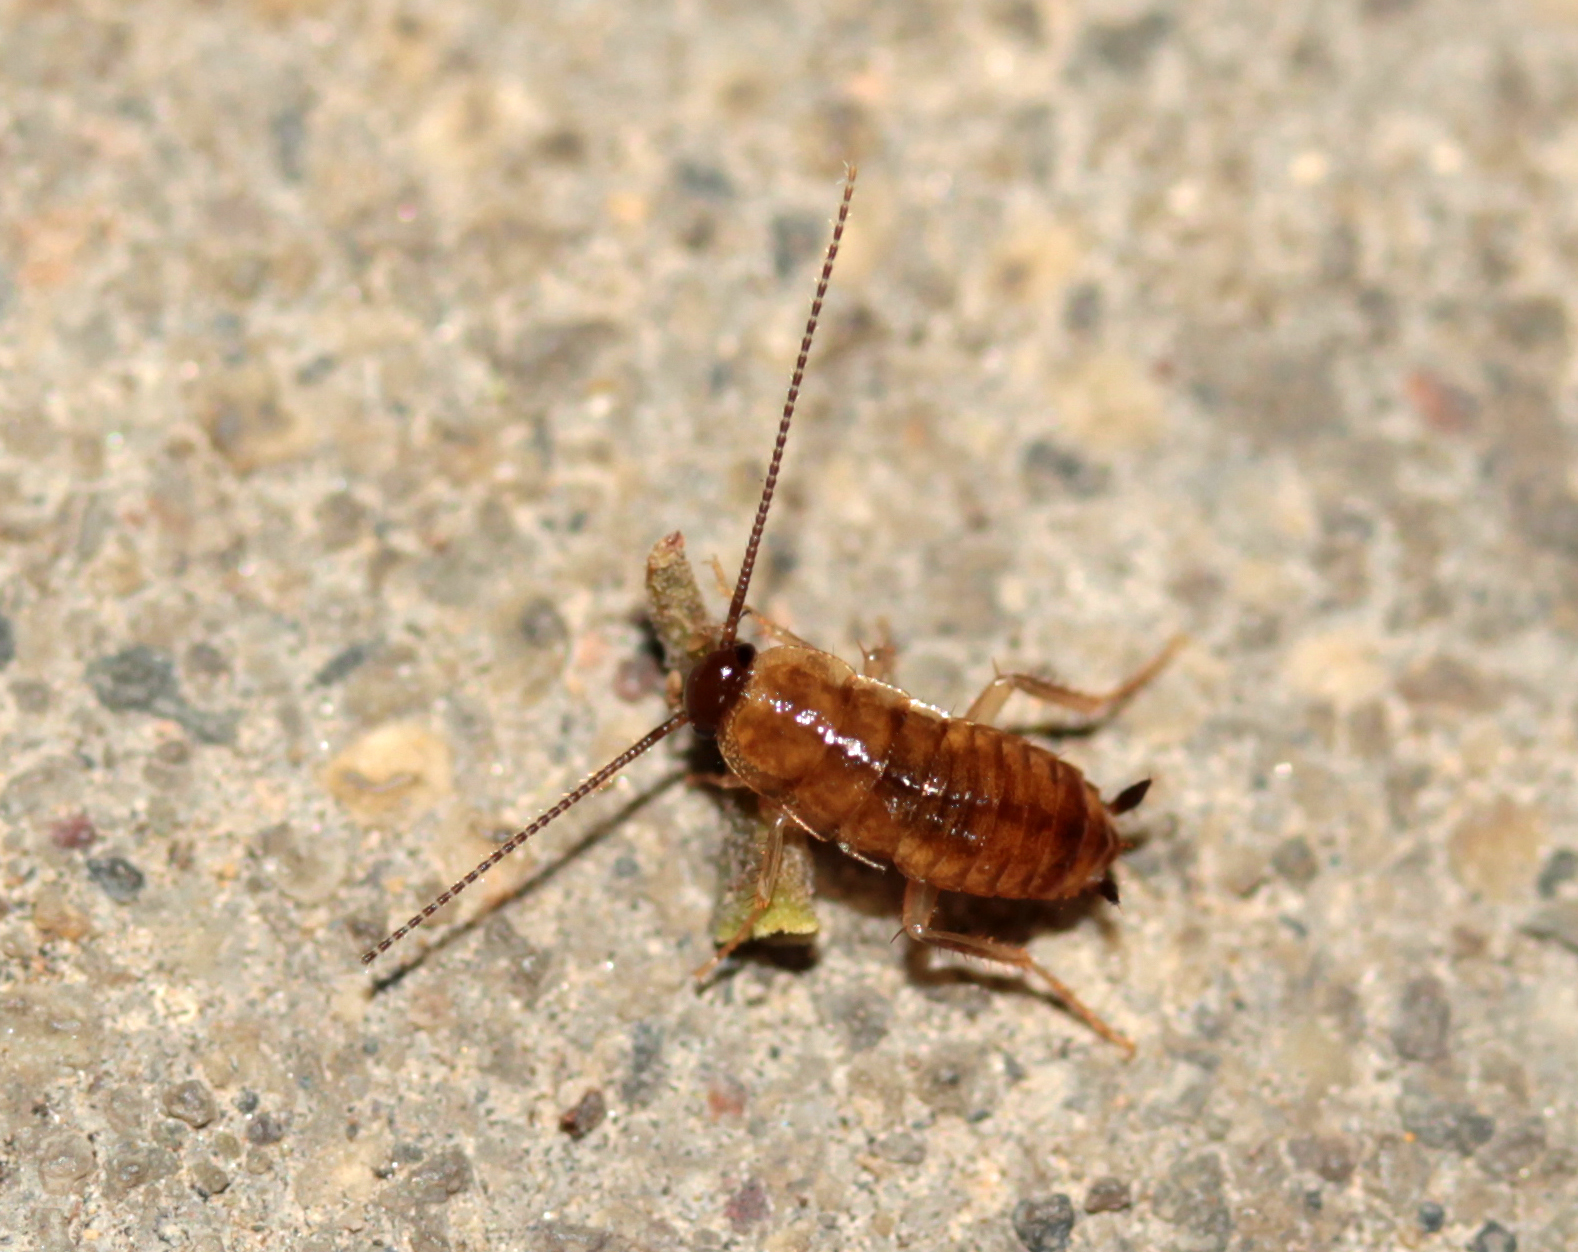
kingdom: Animalia
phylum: Arthropoda
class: Insecta
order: Blattodea
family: Blattidae
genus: Periplaneta
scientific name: Periplaneta lateralis
